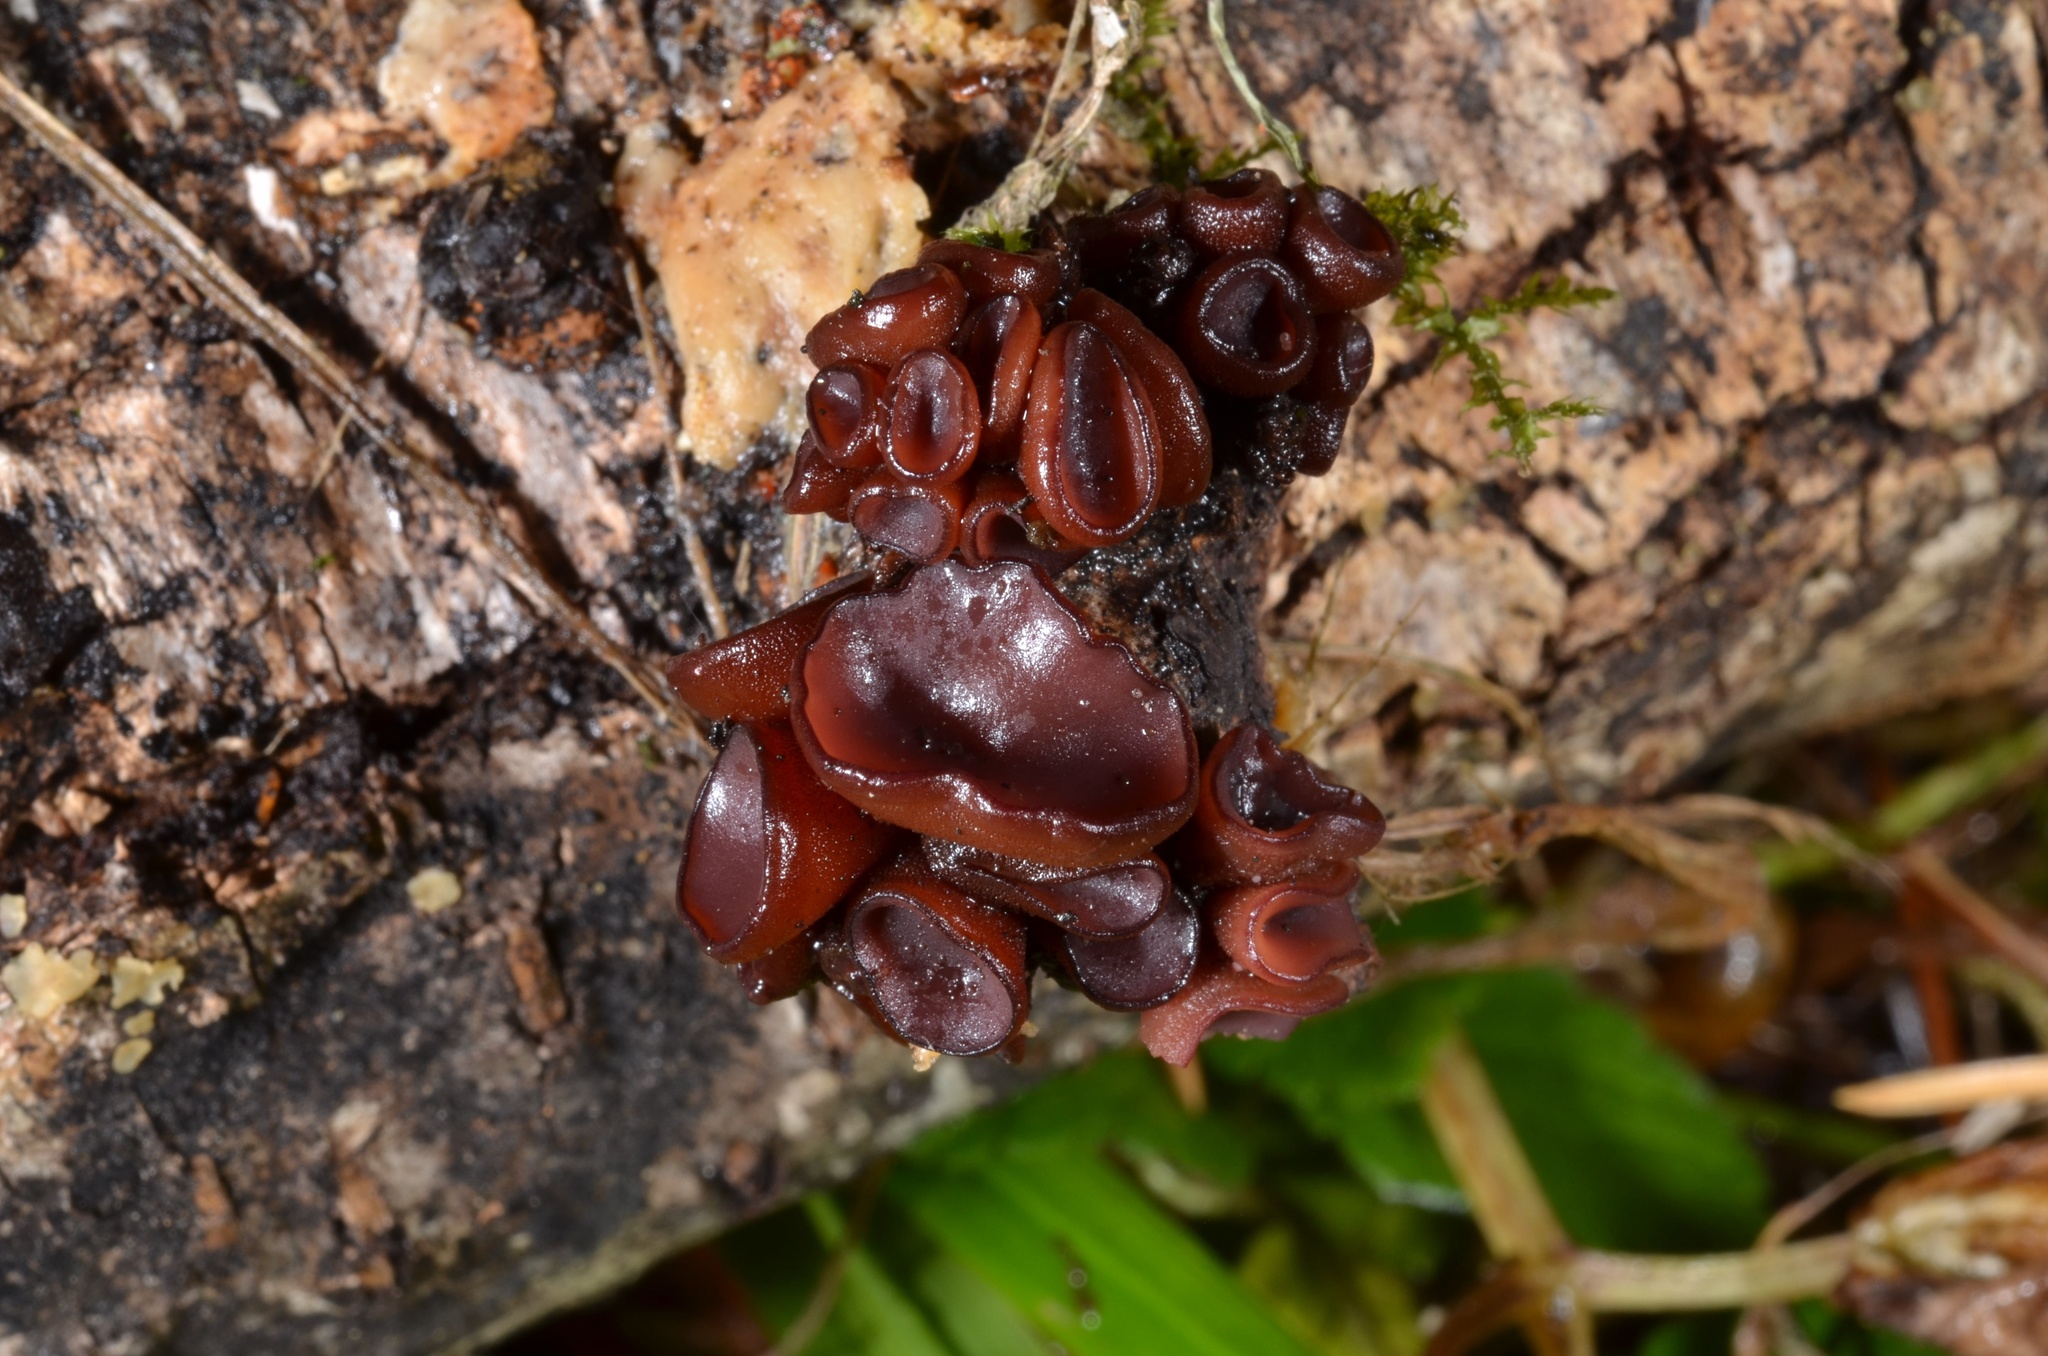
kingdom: Fungi
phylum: Ascomycota
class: Leotiomycetes
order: Helotiales
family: Gelatinodiscaceae
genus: Ascocoryne
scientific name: Ascocoryne cylichnium
